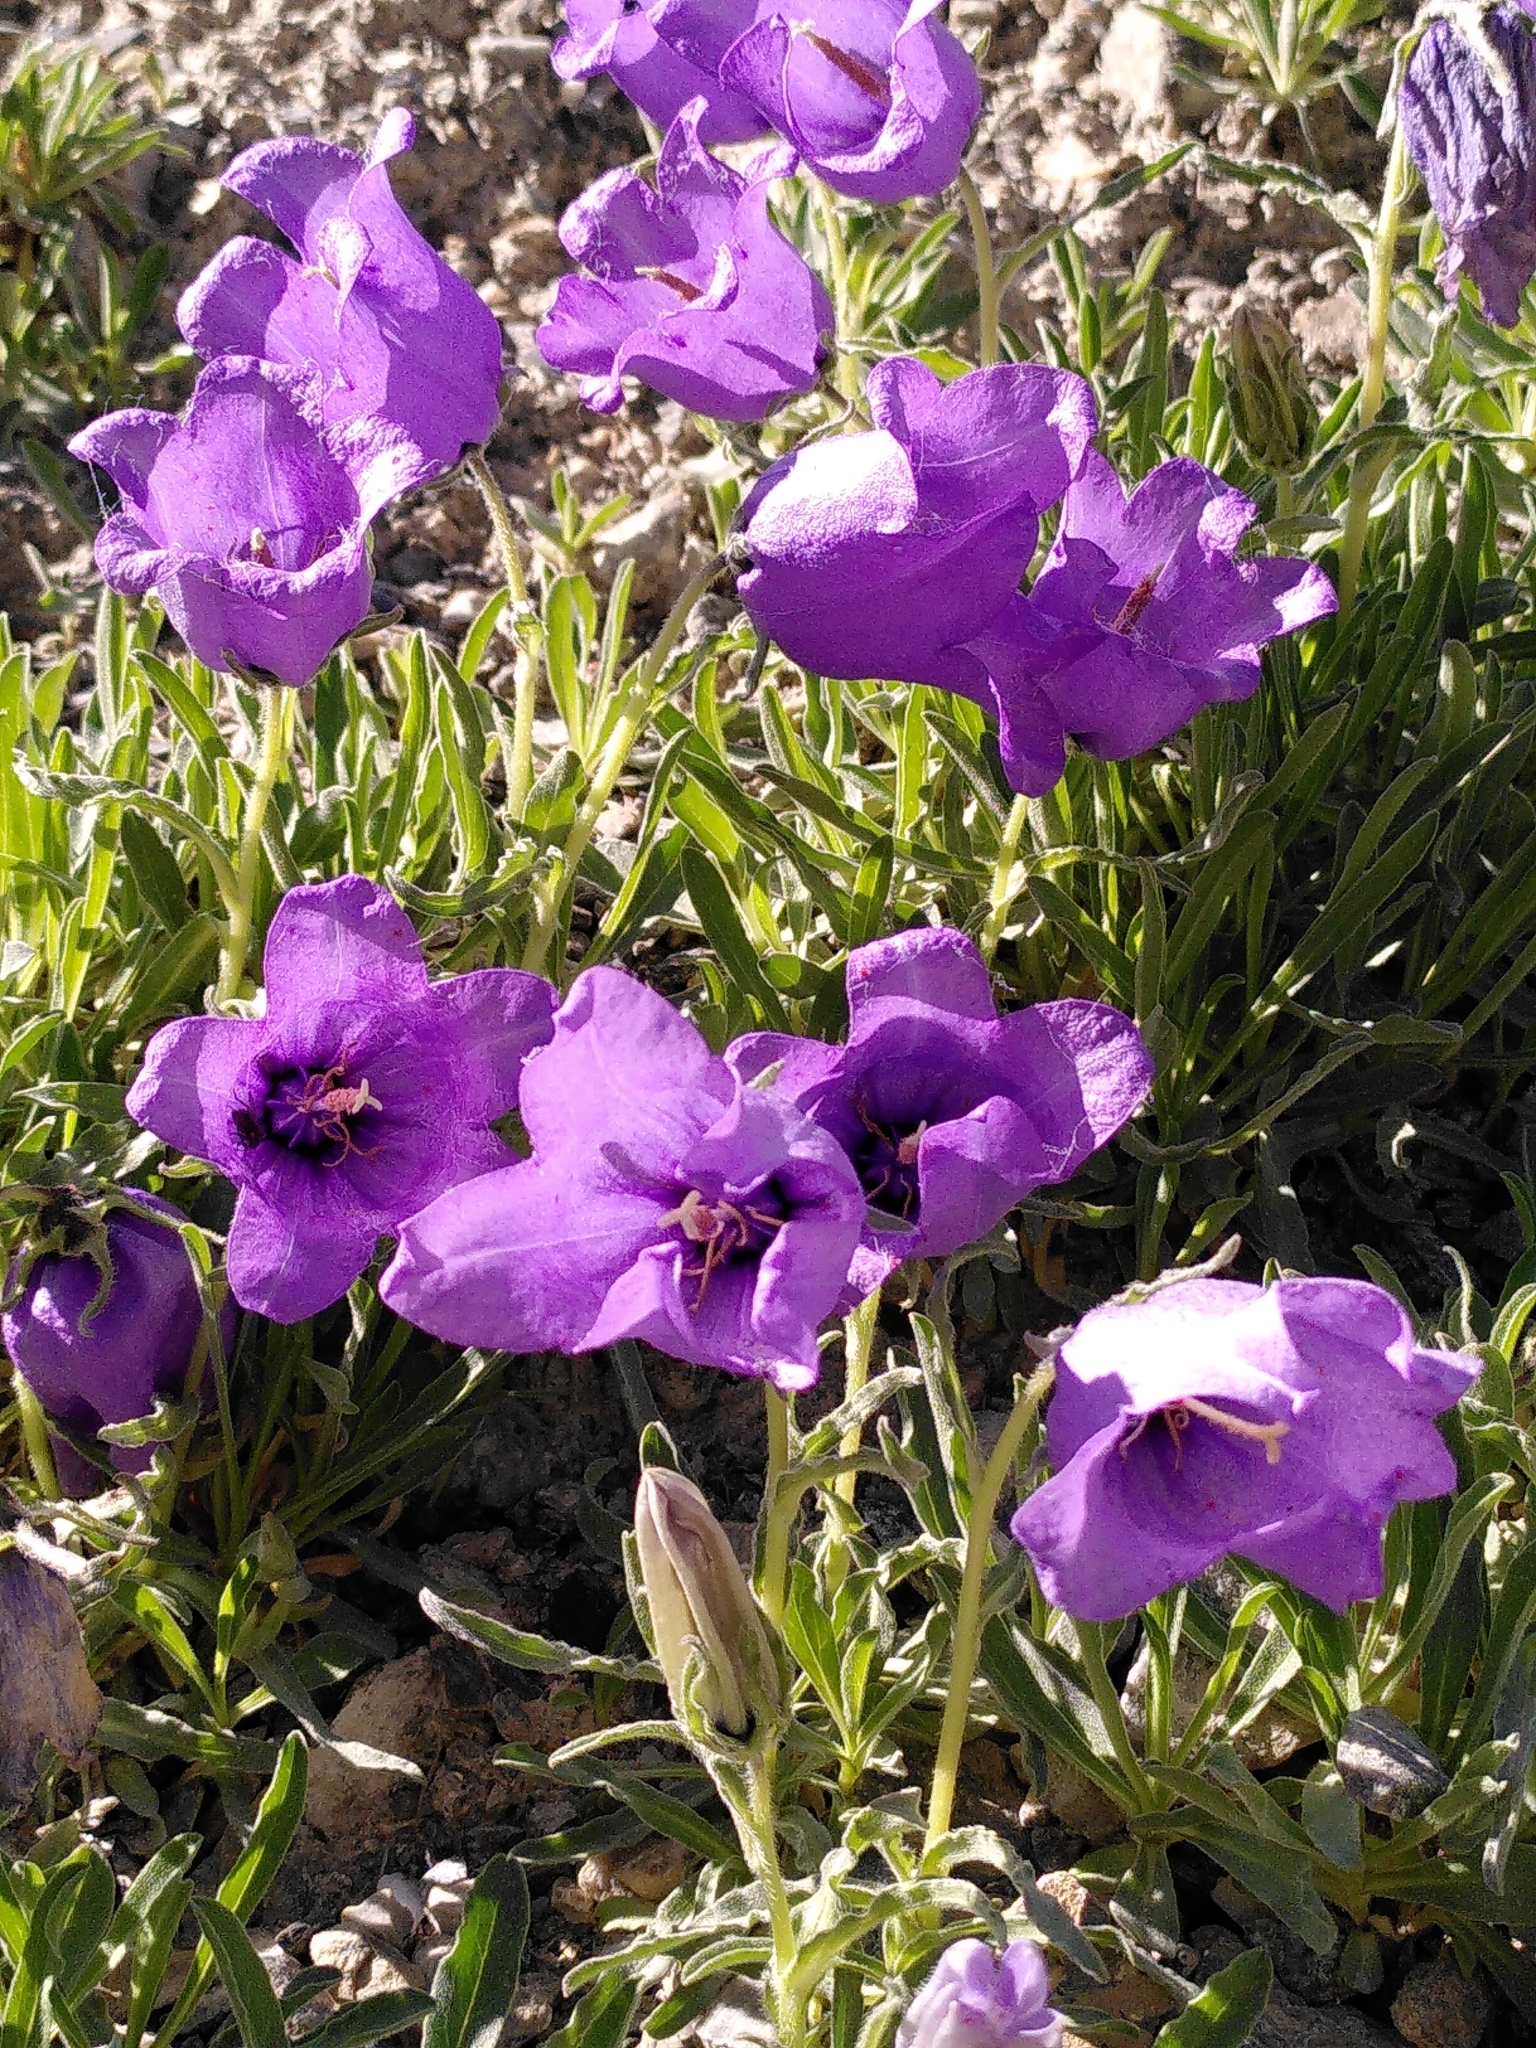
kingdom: Plantae
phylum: Tracheophyta
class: Magnoliopsida
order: Asterales
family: Campanulaceae
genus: Campanula
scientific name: Campanula alpestris
